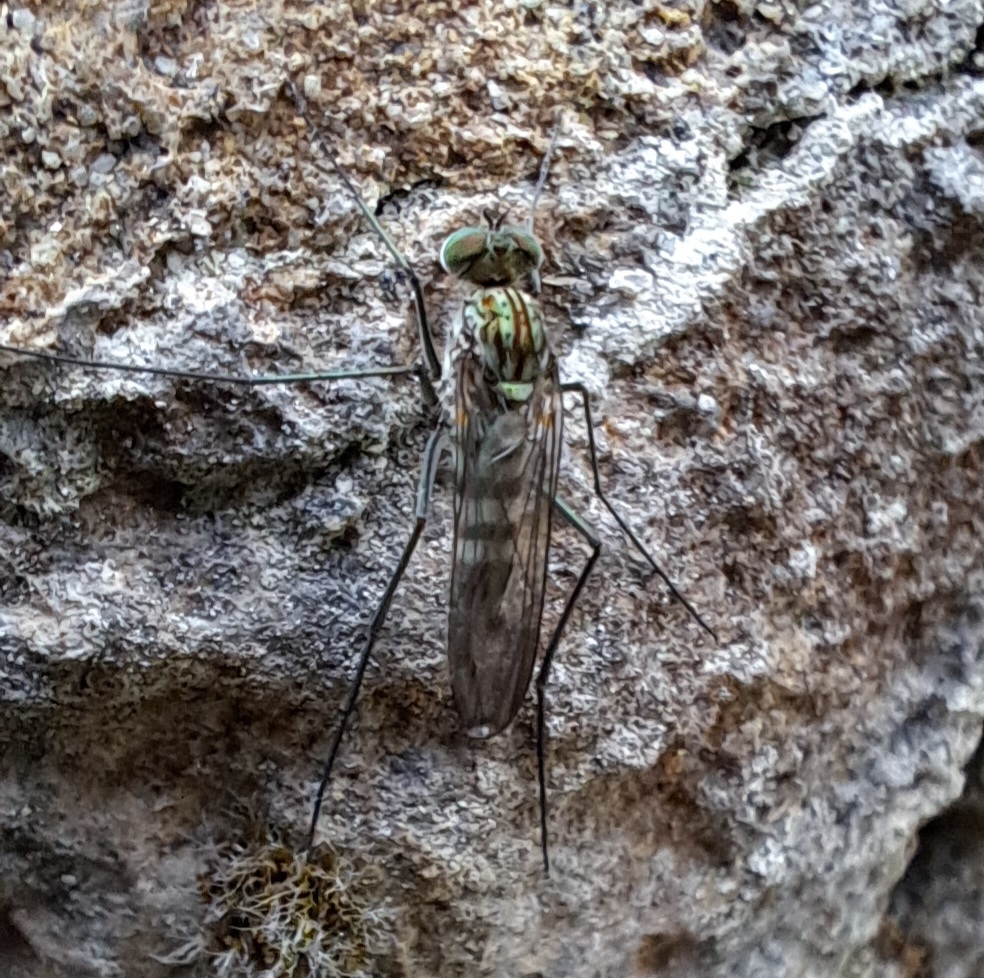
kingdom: Animalia
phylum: Arthropoda
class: Insecta
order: Diptera
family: Dolichopodidae
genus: Liancalus
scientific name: Liancalus virens
